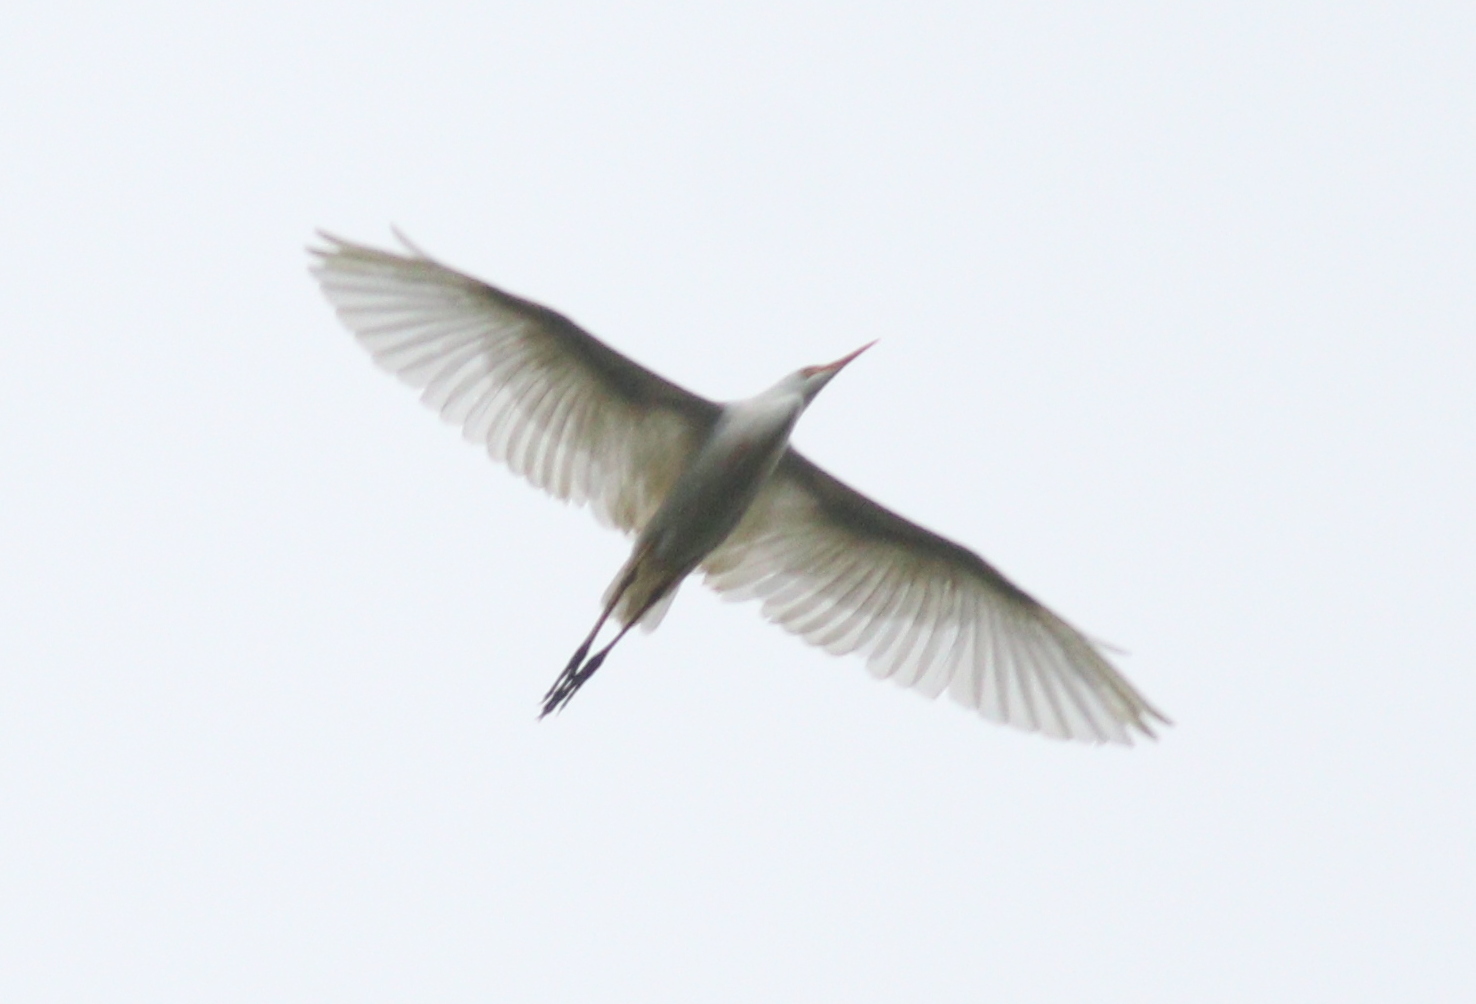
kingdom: Animalia
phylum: Chordata
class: Aves
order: Pelecaniformes
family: Ardeidae
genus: Bubulcus
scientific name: Bubulcus ibis
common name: Cattle egret
